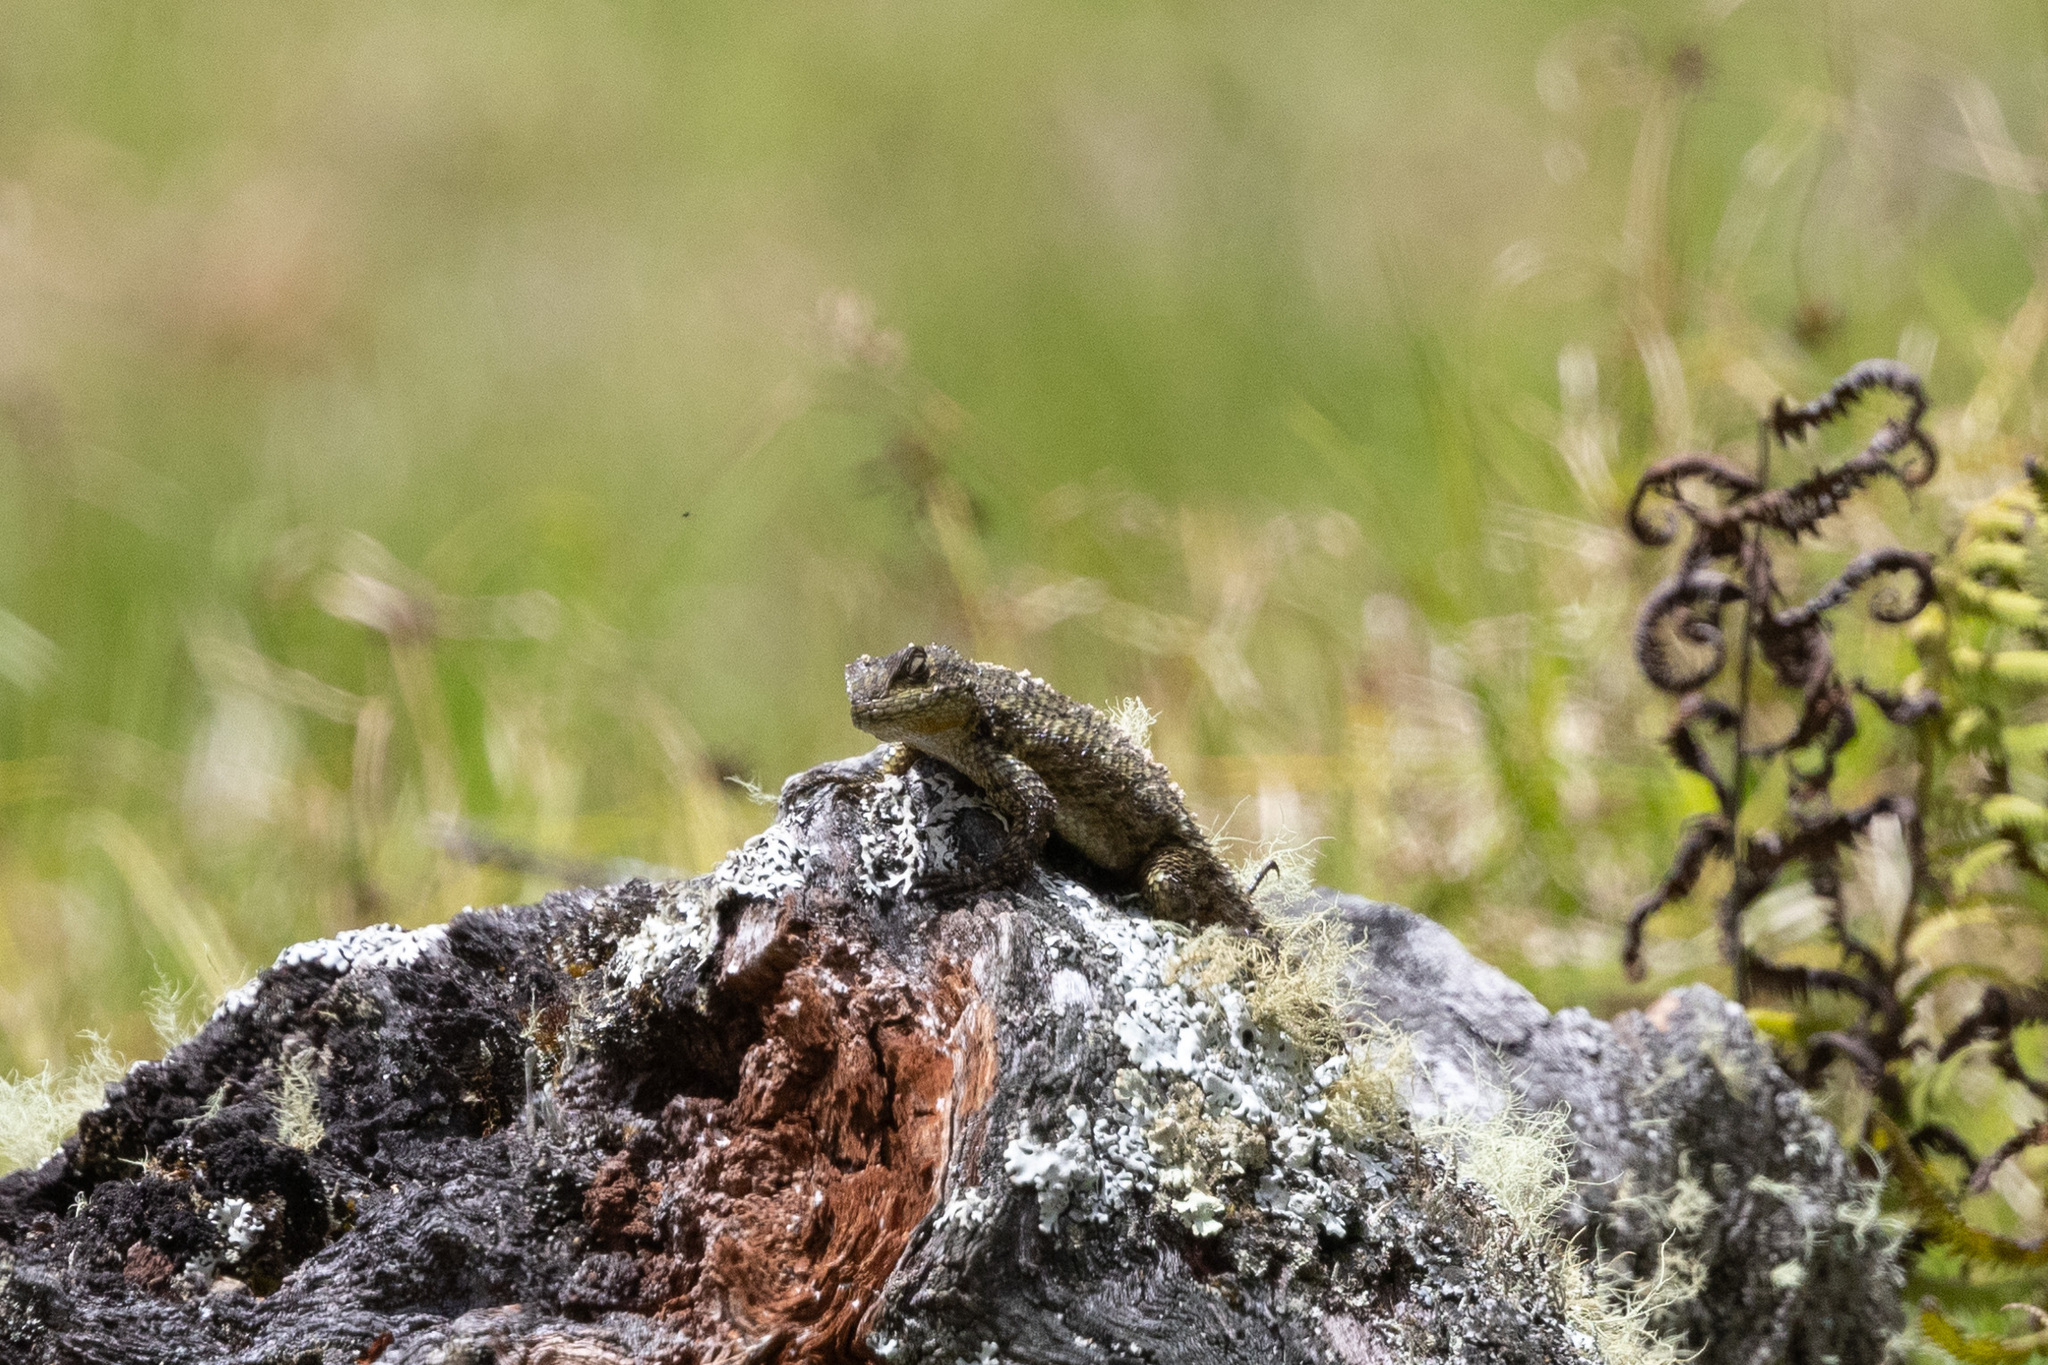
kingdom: Animalia
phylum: Chordata
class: Squamata
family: Phrynosomatidae
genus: Sceloporus
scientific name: Sceloporus malachiticus
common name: Green spiny lizard
